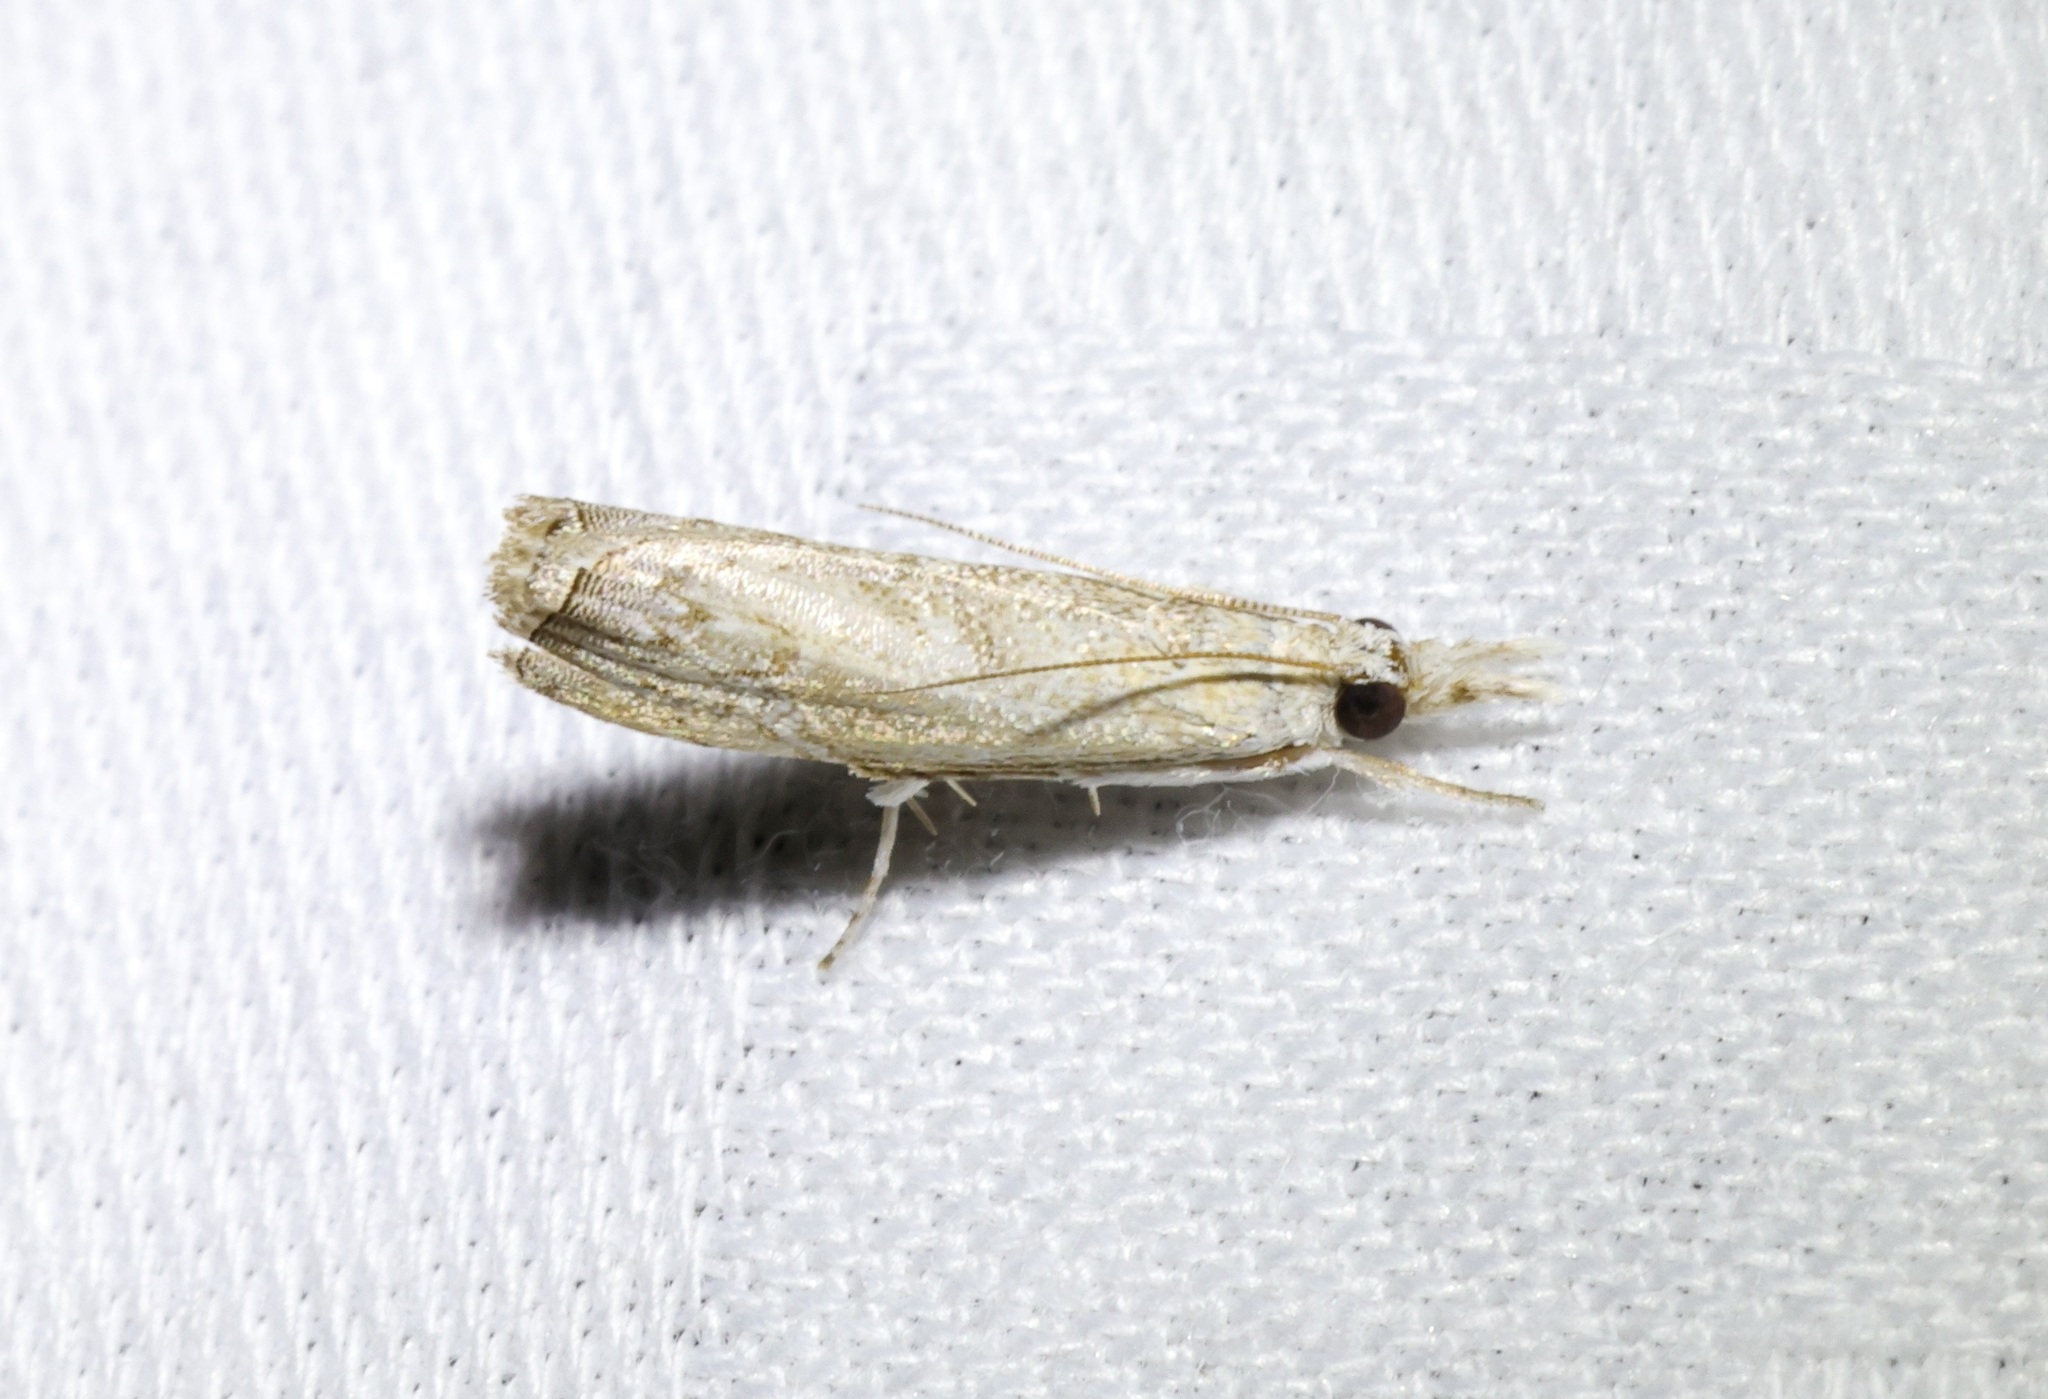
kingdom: Animalia
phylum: Arthropoda
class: Insecta
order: Lepidoptera
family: Crambidae
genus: Culladia
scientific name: Culladia hastiferalis
